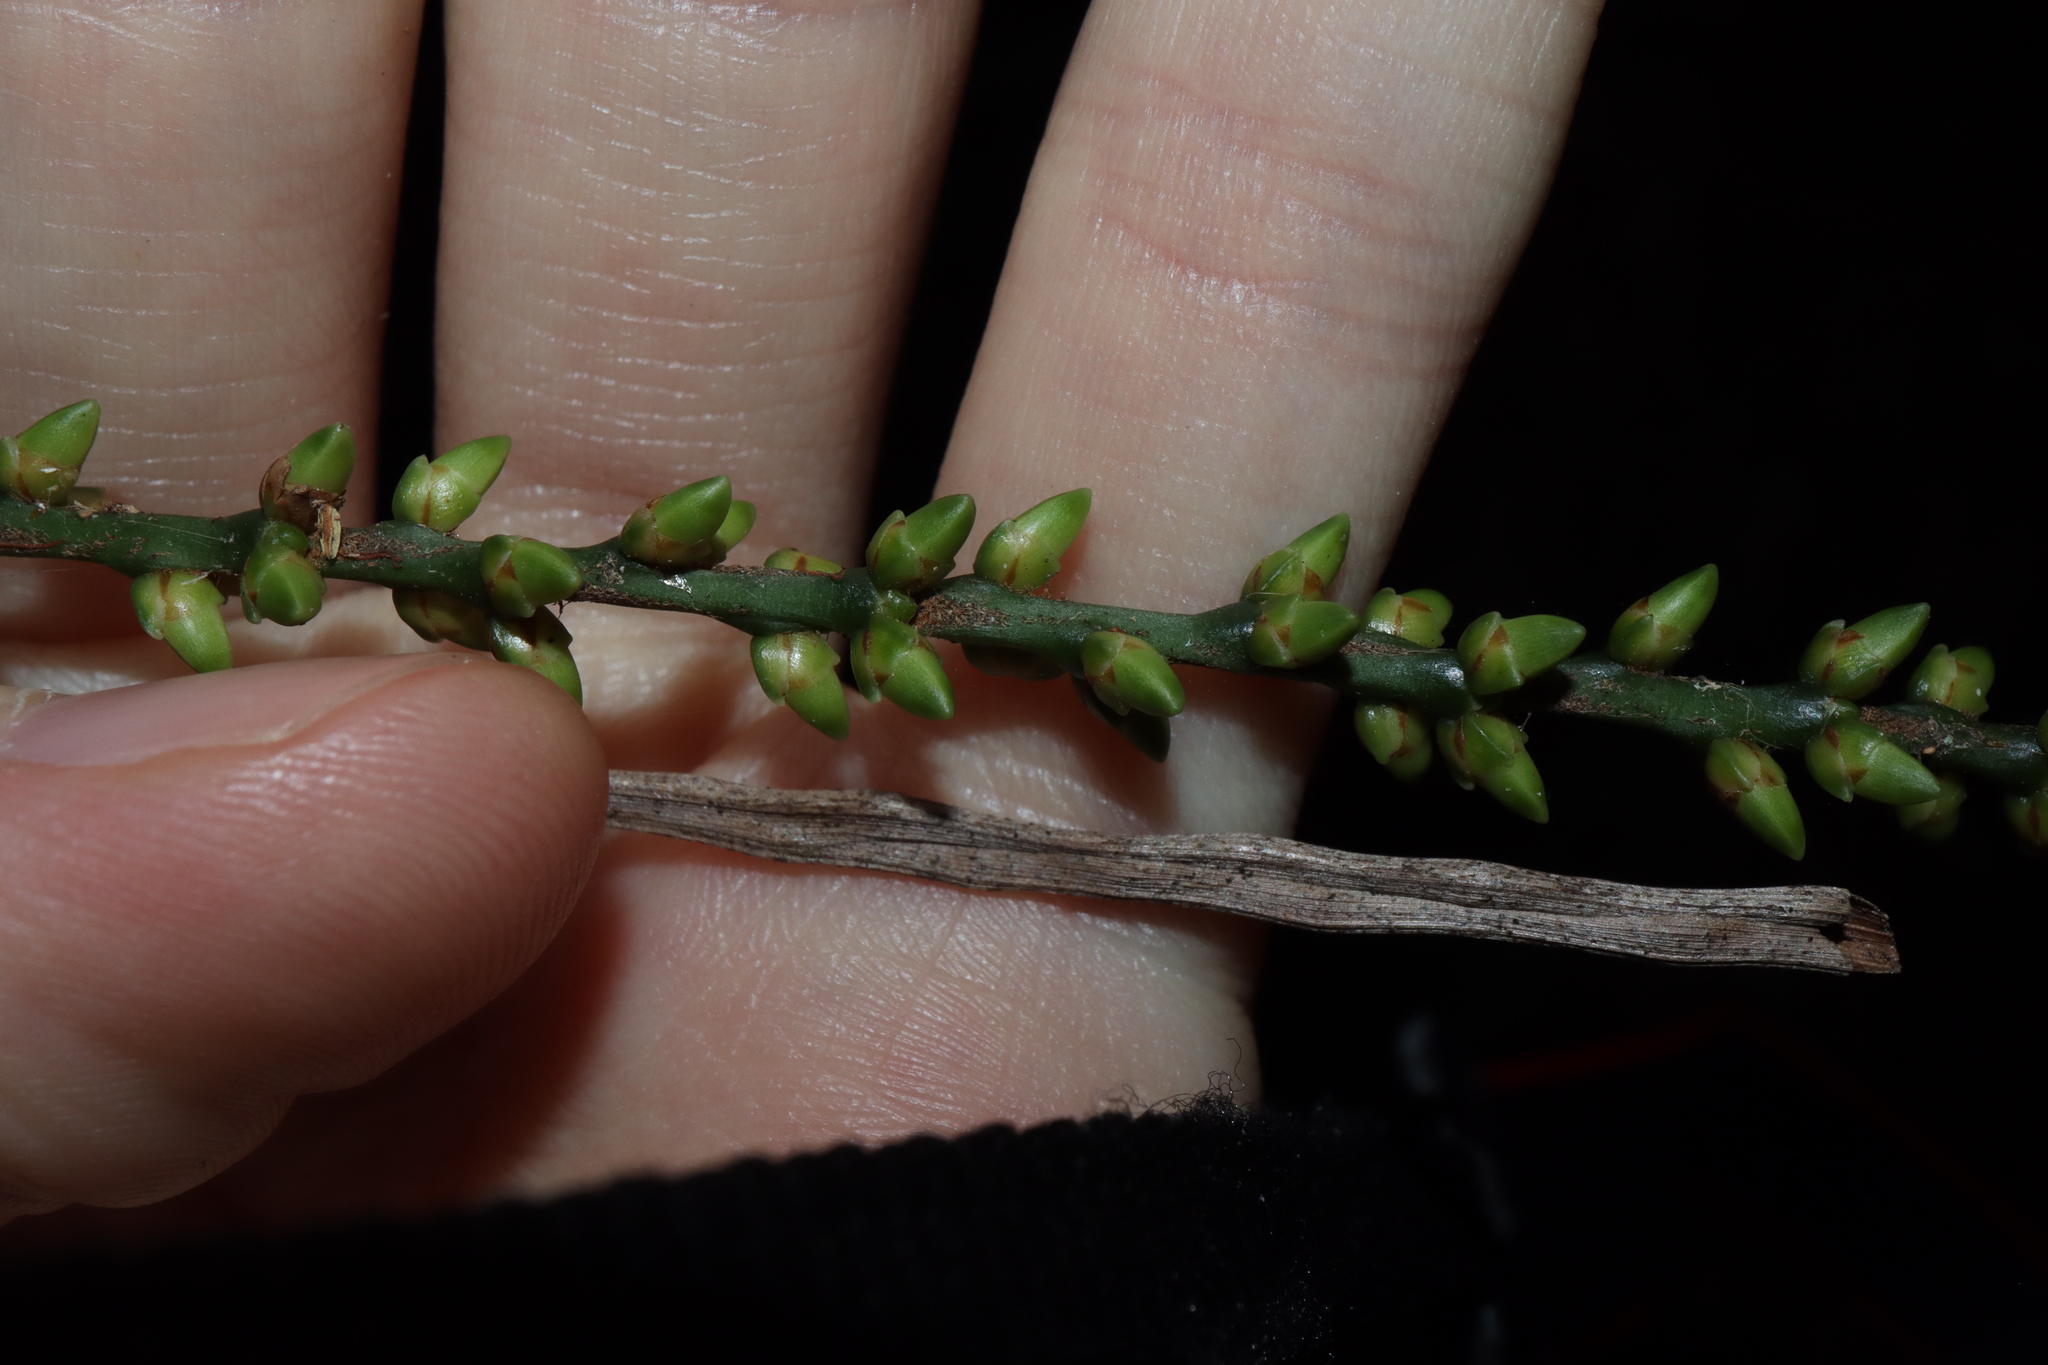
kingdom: Plantae
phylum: Tracheophyta
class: Liliopsida
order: Arecales
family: Arecaceae
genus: Linospadix
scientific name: Linospadix monostachyus
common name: Walking-stick palm
